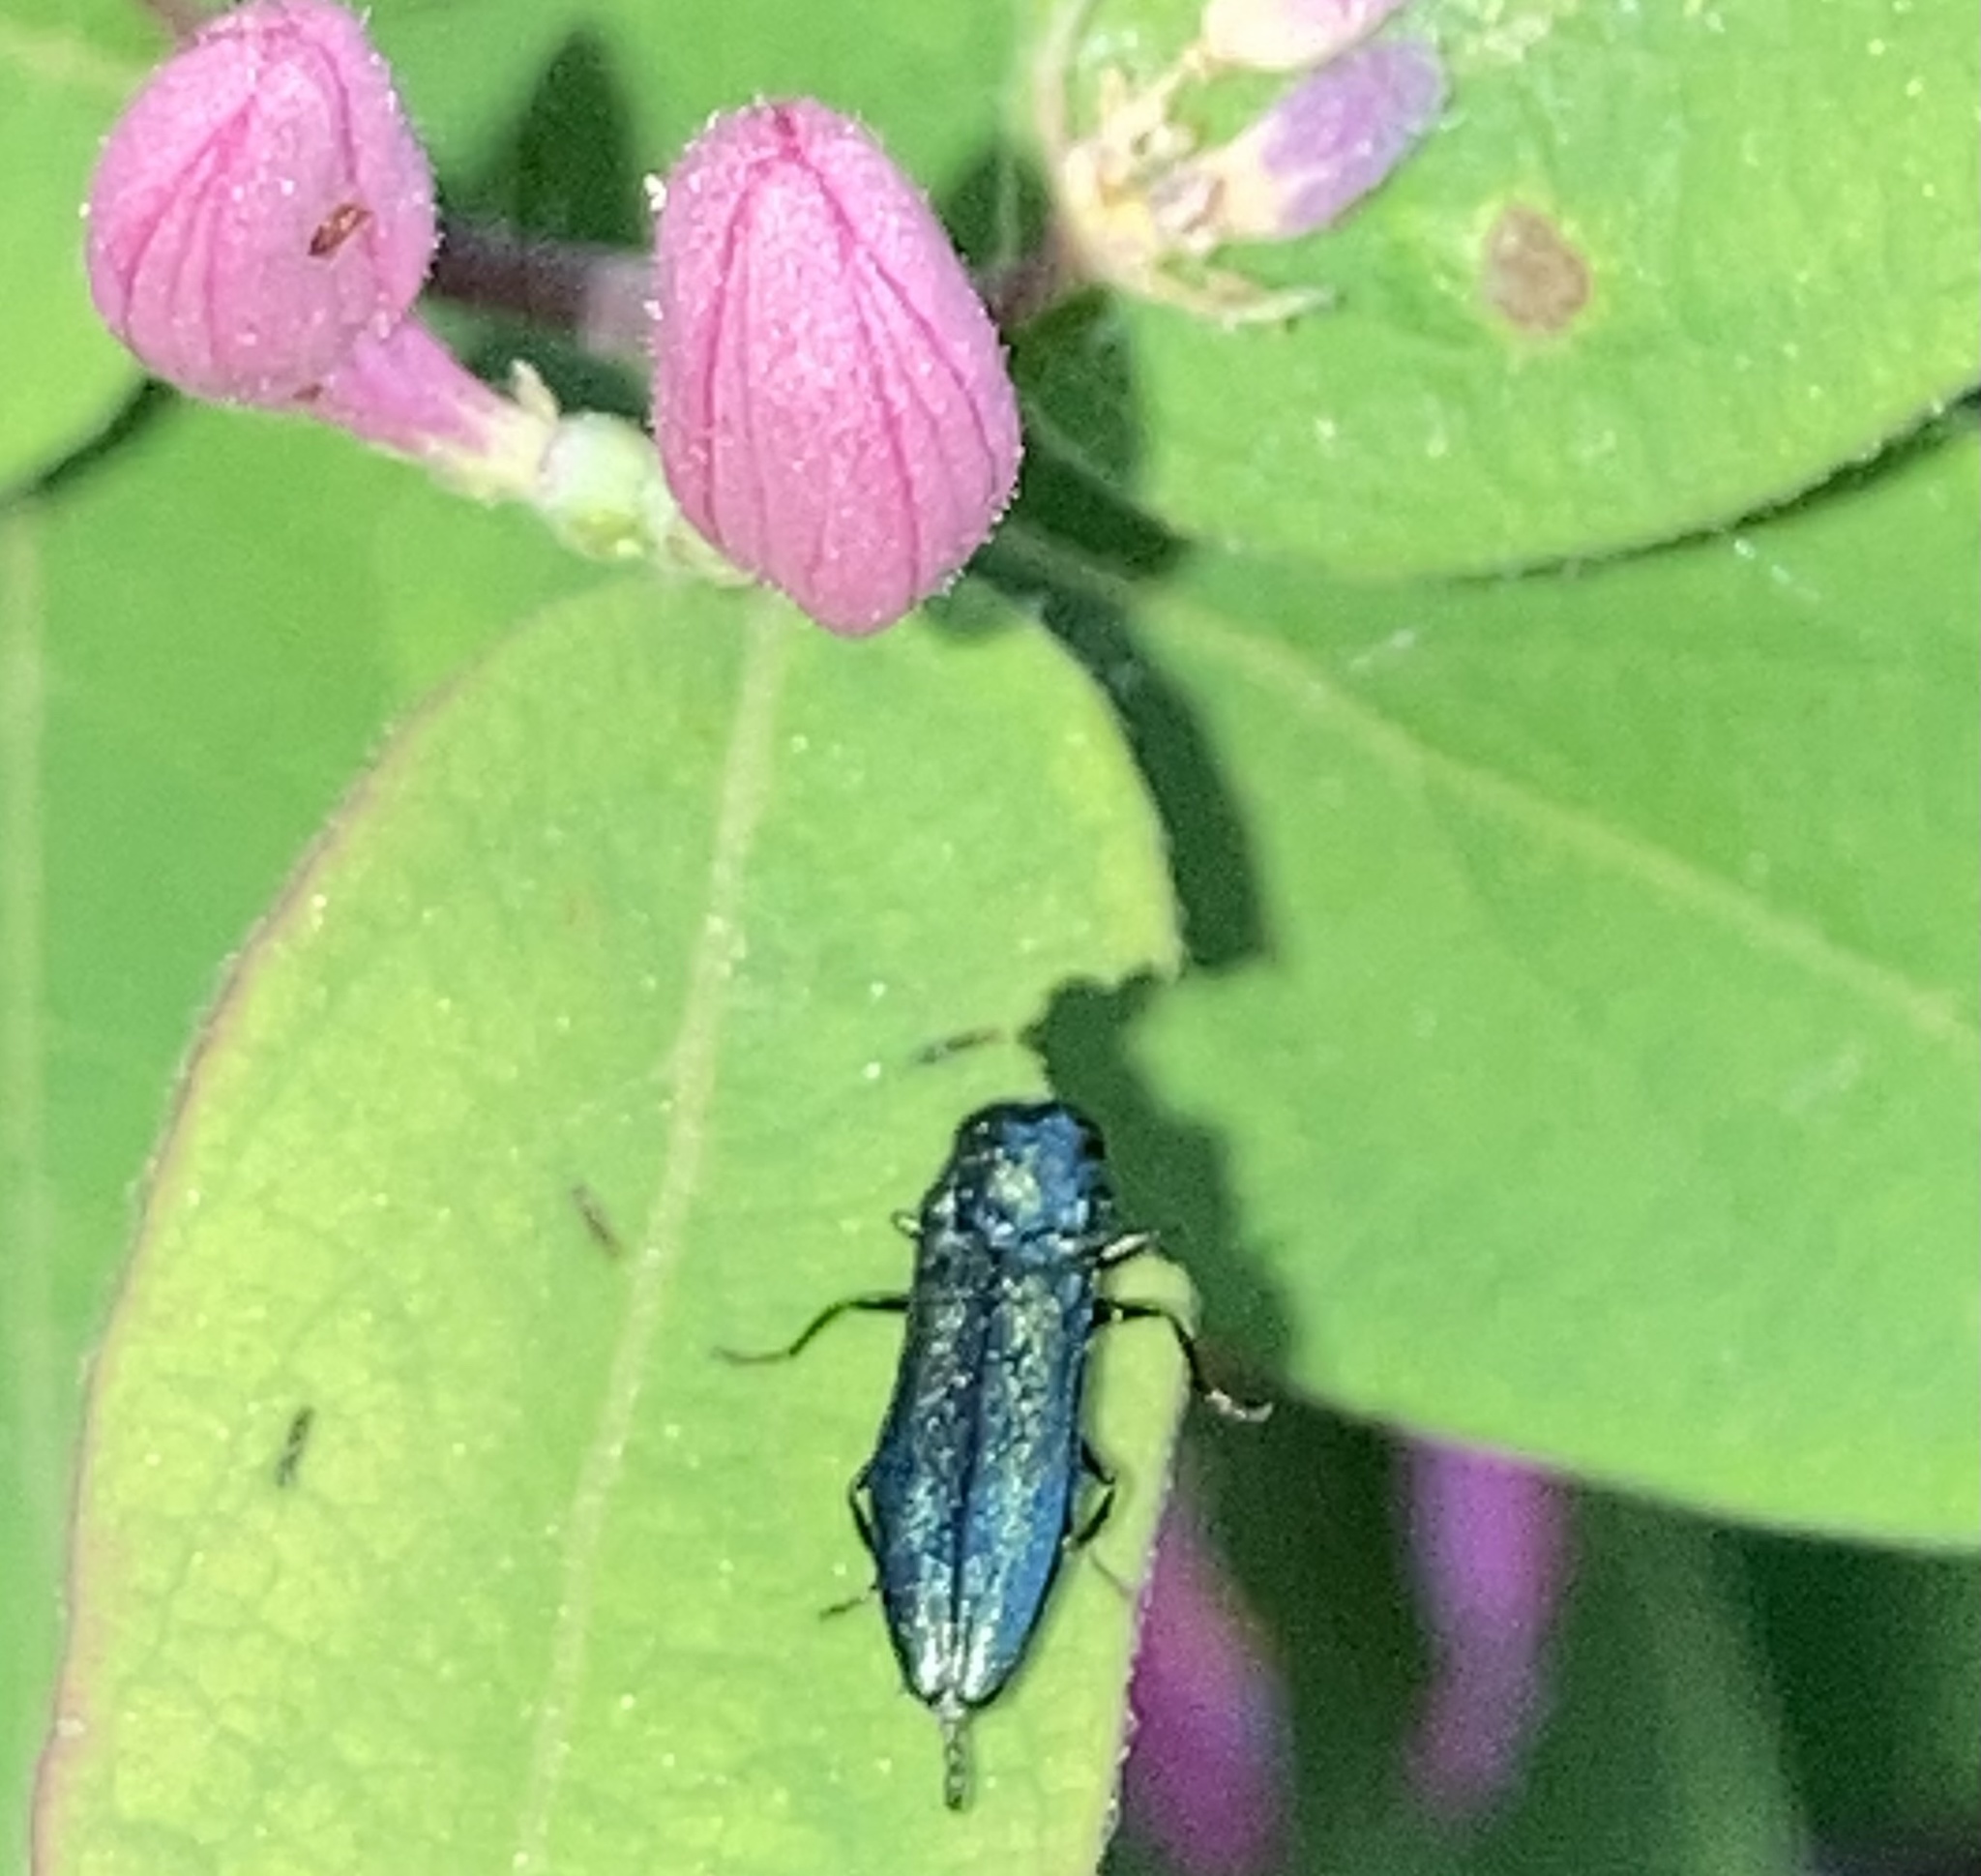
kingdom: Animalia
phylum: Arthropoda
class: Insecta
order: Coleoptera
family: Buprestidae
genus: Agrilus
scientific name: Agrilus cyanescens
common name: Bluish borer beetle
